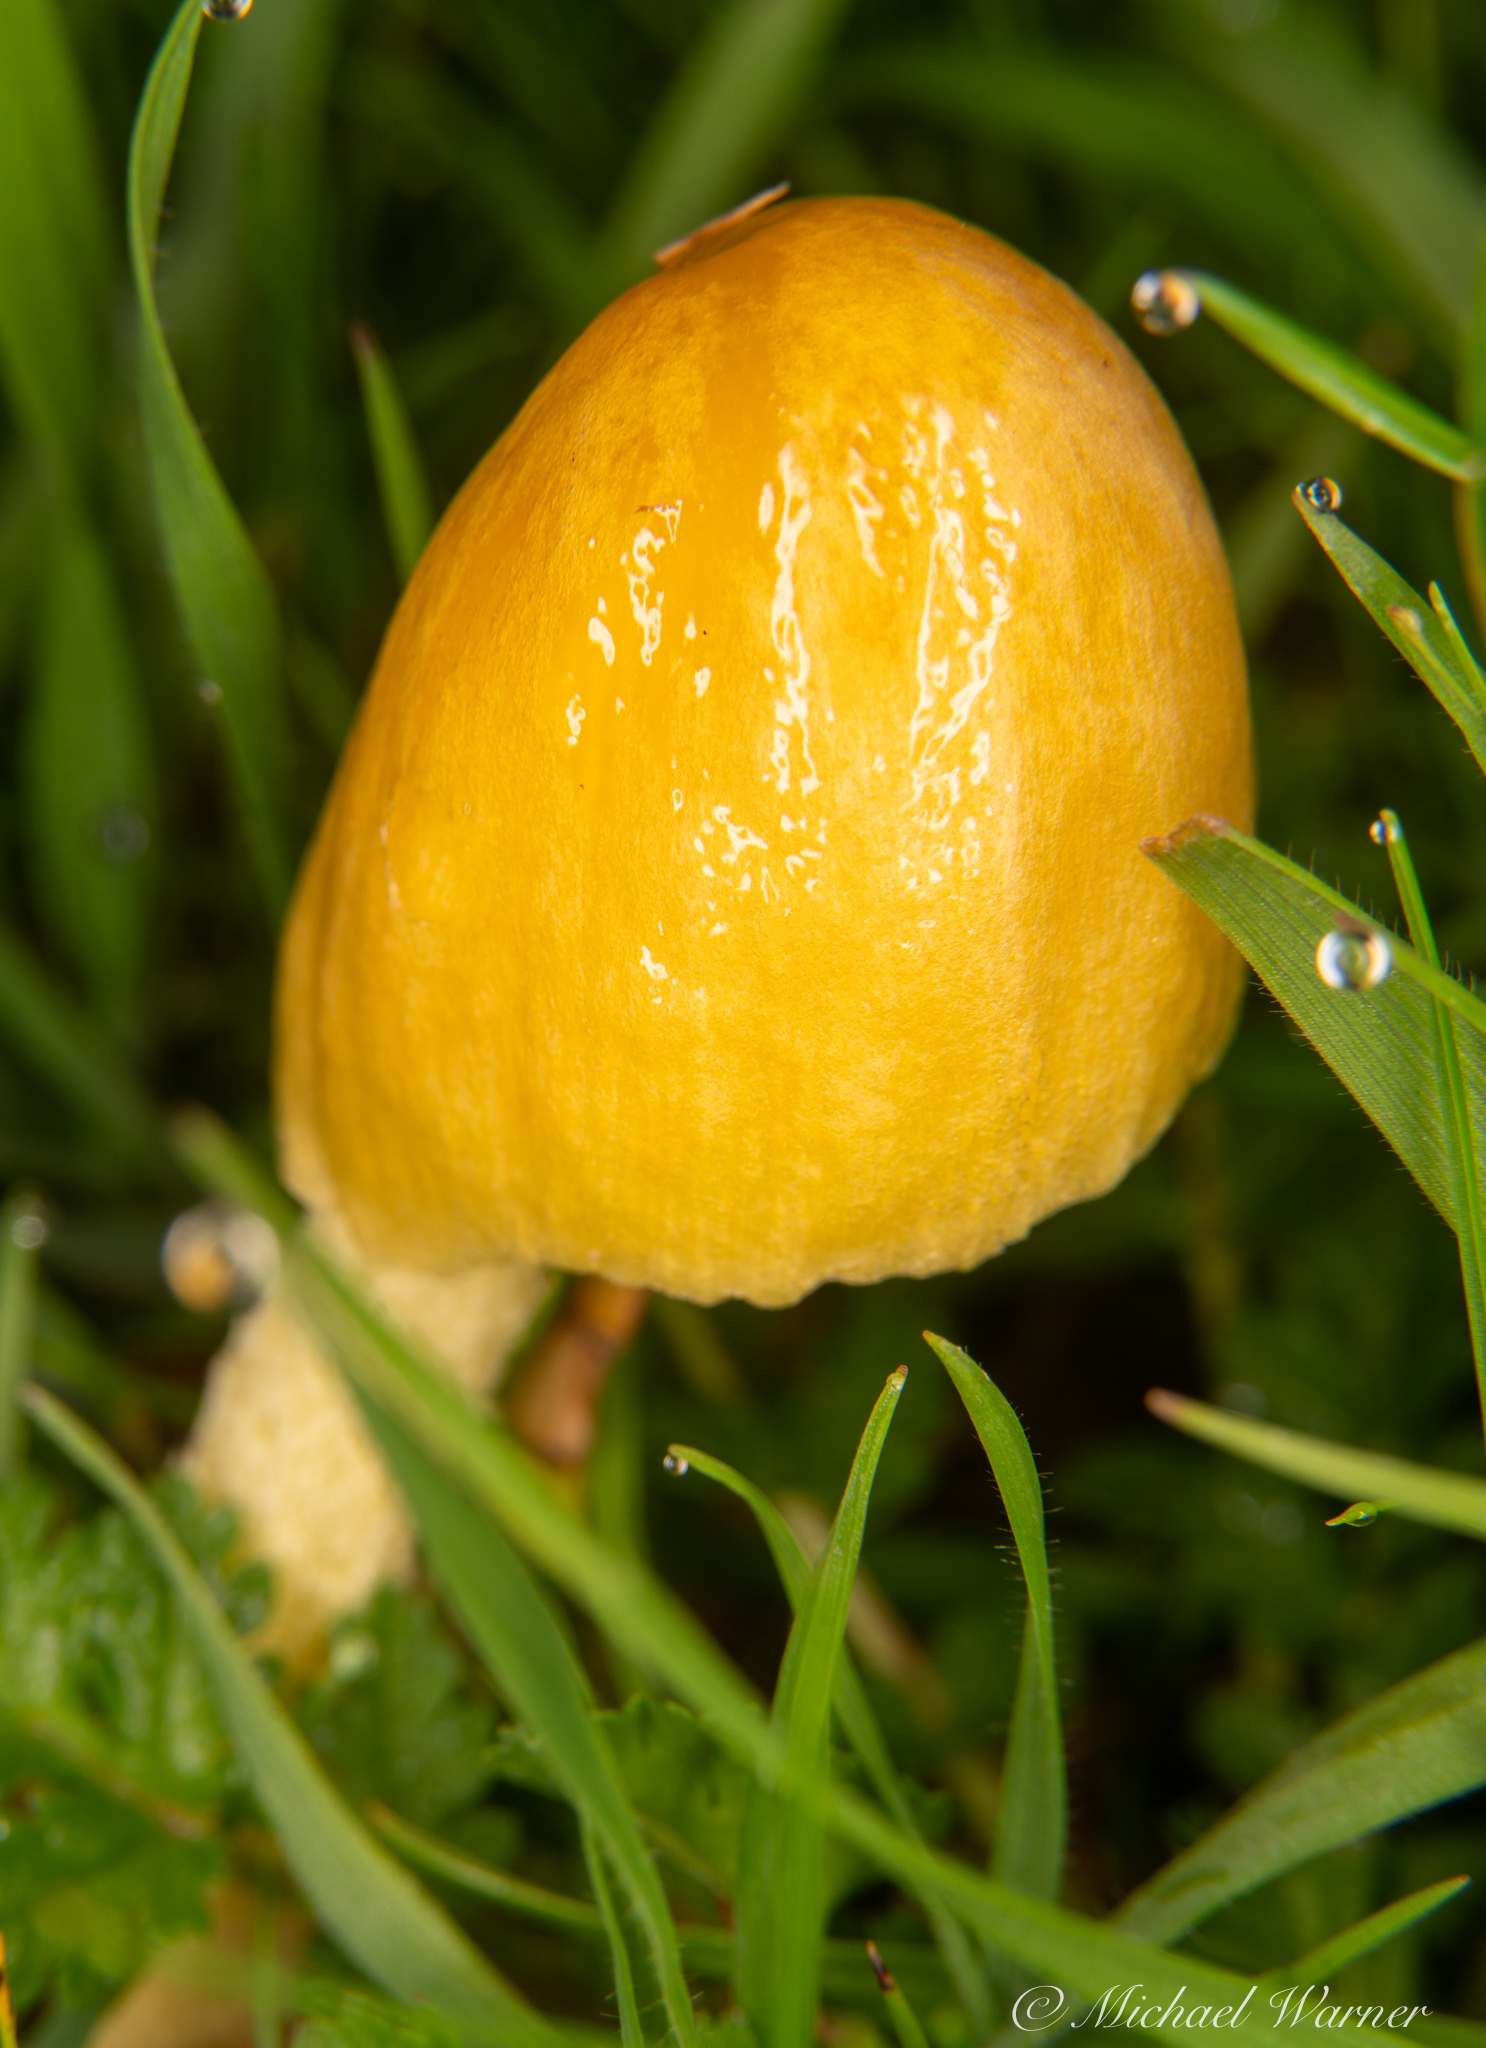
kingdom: Fungi
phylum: Basidiomycota
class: Agaricomycetes
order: Agaricales
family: Bolbitiaceae
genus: Bolbitius
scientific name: Bolbitius titubans
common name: Yellow fieldcap
